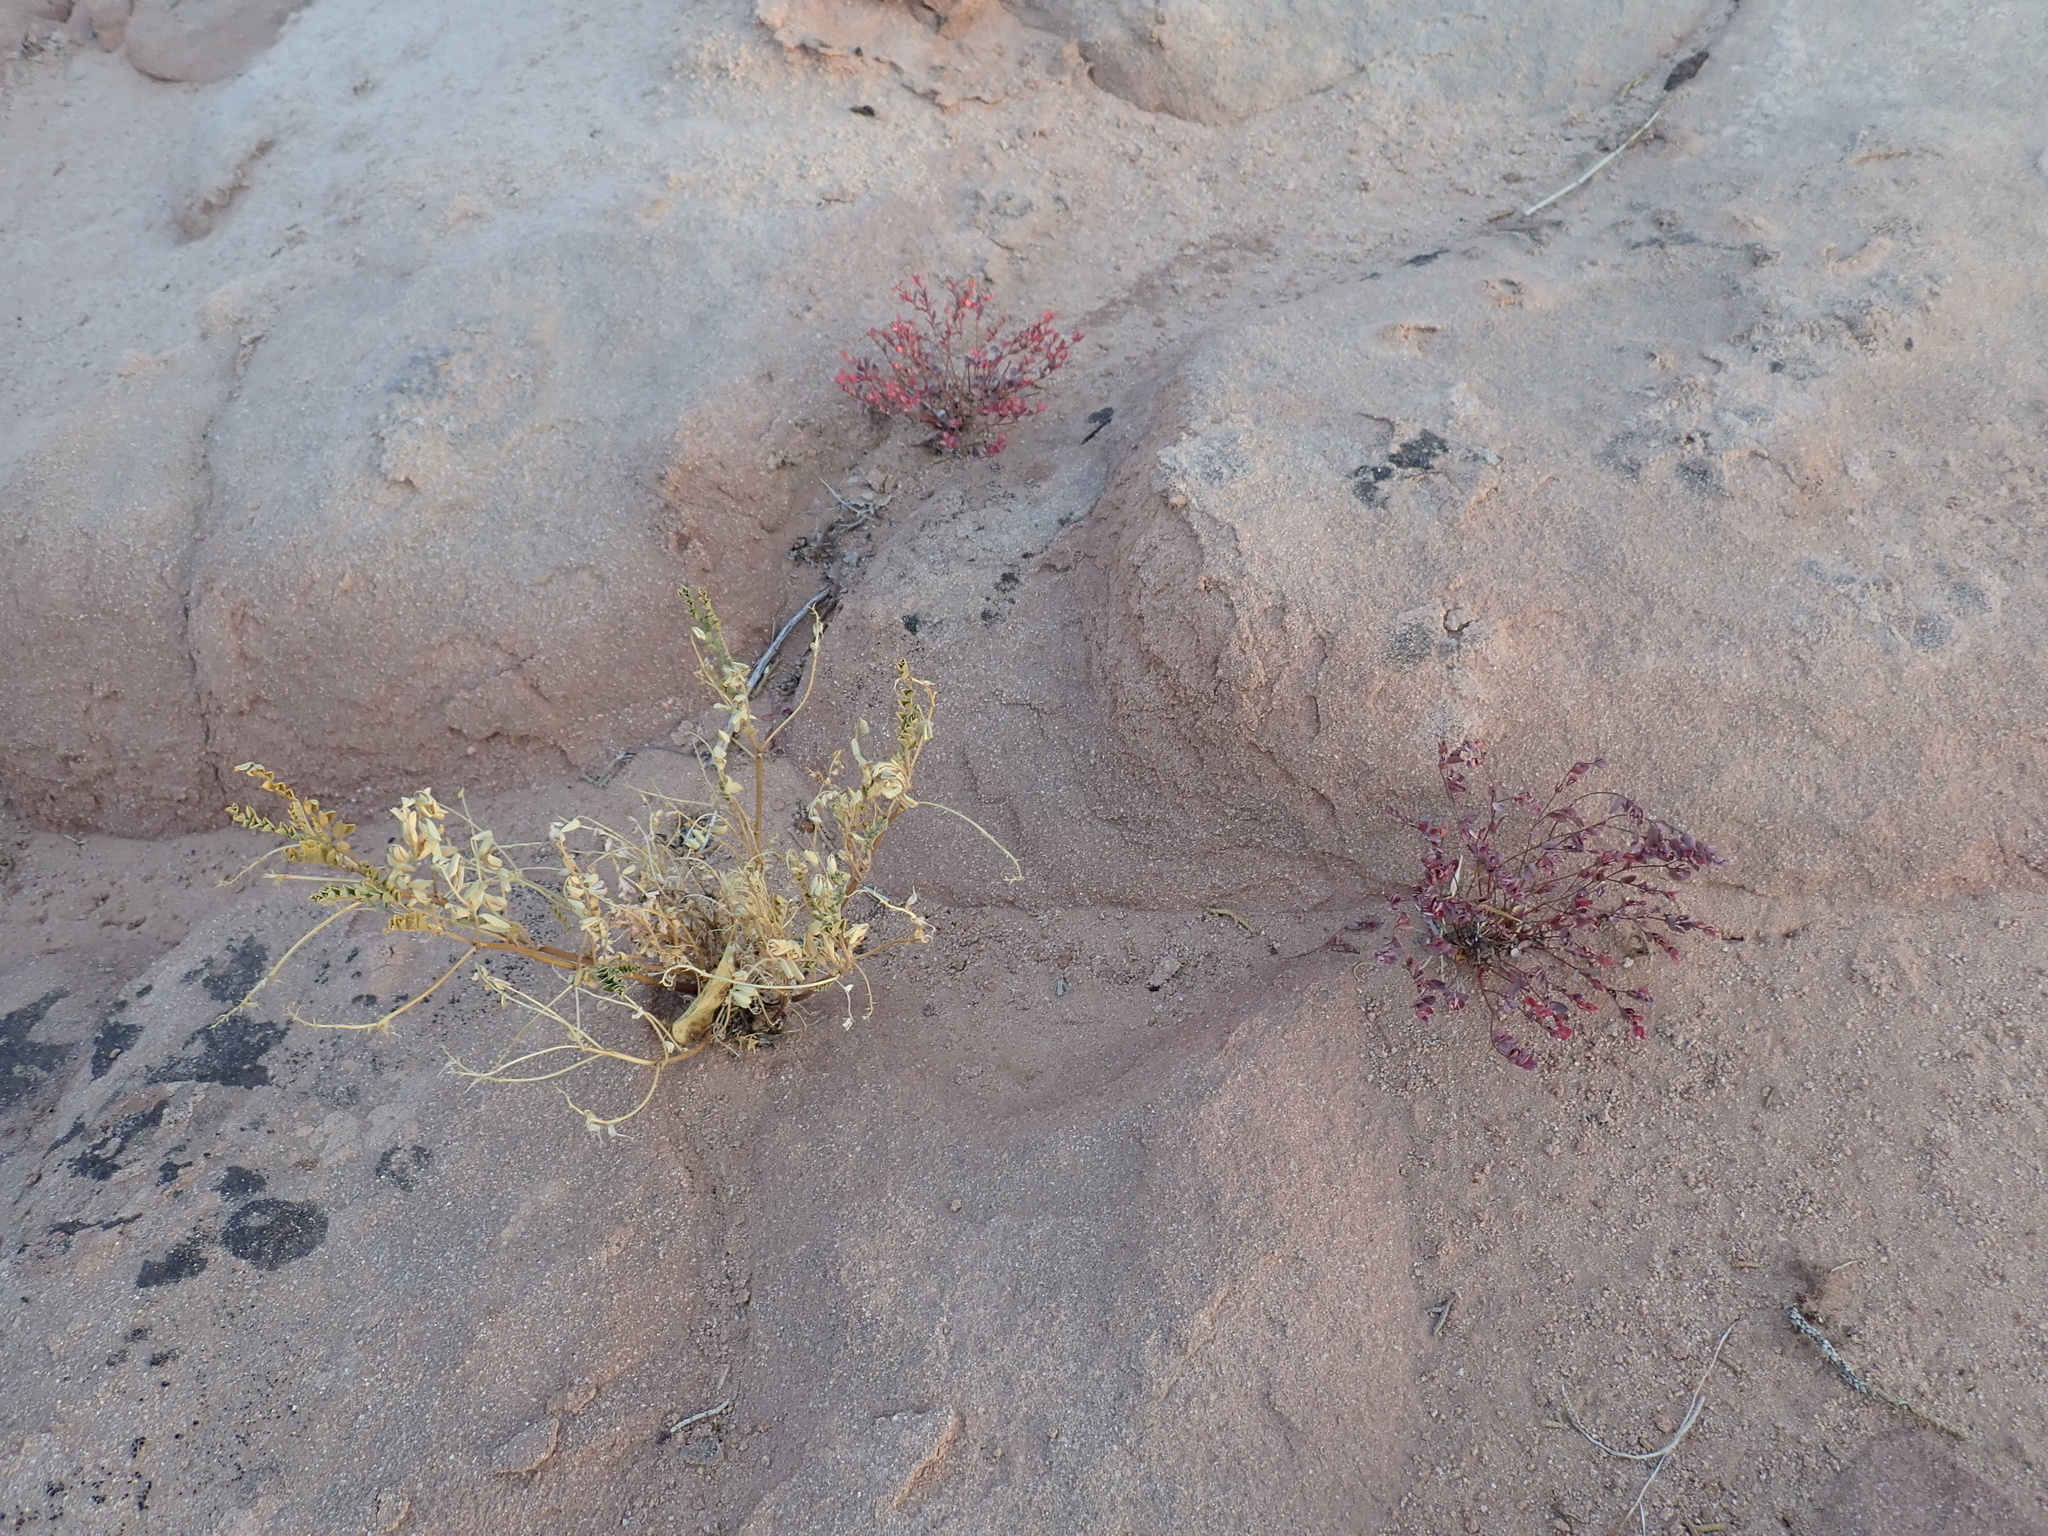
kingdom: Plantae
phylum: Tracheophyta
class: Magnoliopsida
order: Malpighiales
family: Euphorbiaceae
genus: Euphorbia
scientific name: Euphorbia fendleri
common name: Fendler's euphorbia
